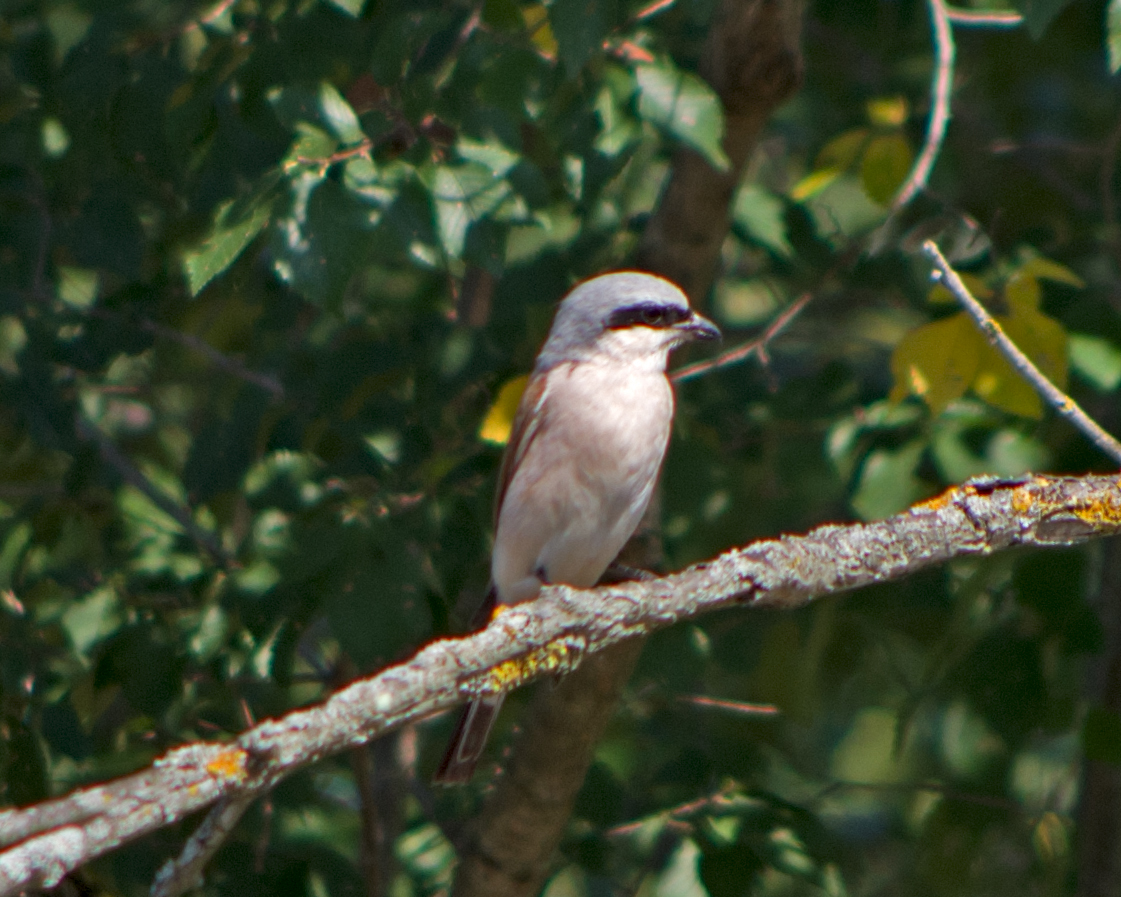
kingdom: Animalia
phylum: Chordata
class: Aves
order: Passeriformes
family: Laniidae
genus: Lanius
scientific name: Lanius collurio
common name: Red-backed shrike
